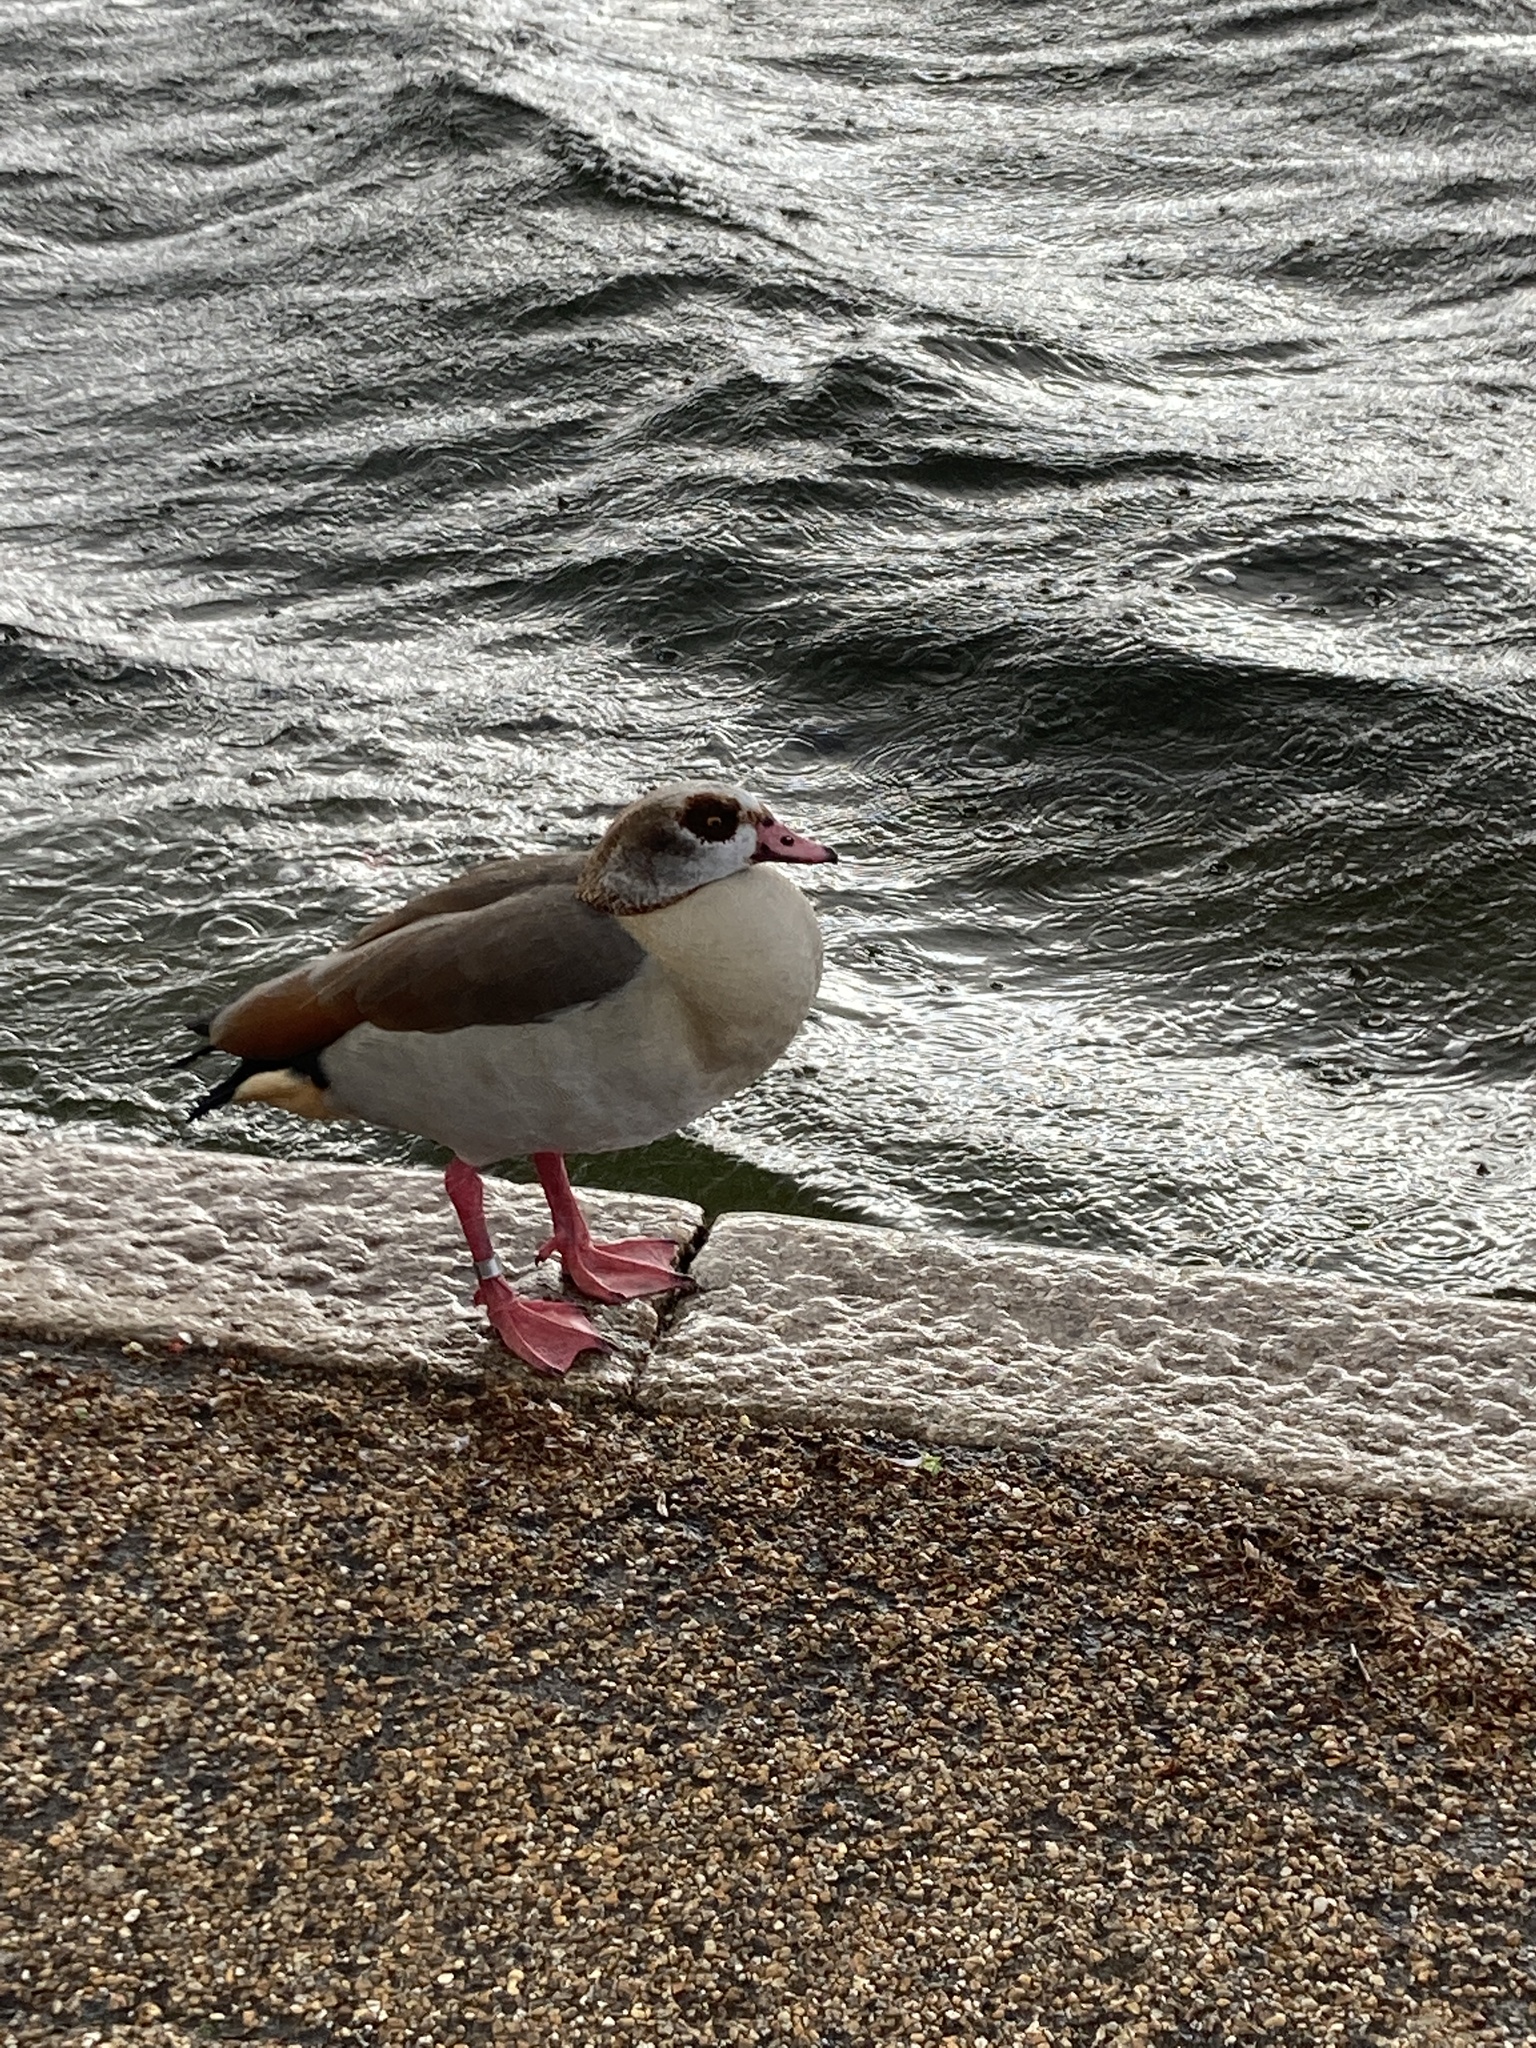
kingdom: Animalia
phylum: Chordata
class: Aves
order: Anseriformes
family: Anatidae
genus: Alopochen
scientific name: Alopochen aegyptiaca
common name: Egyptian goose
